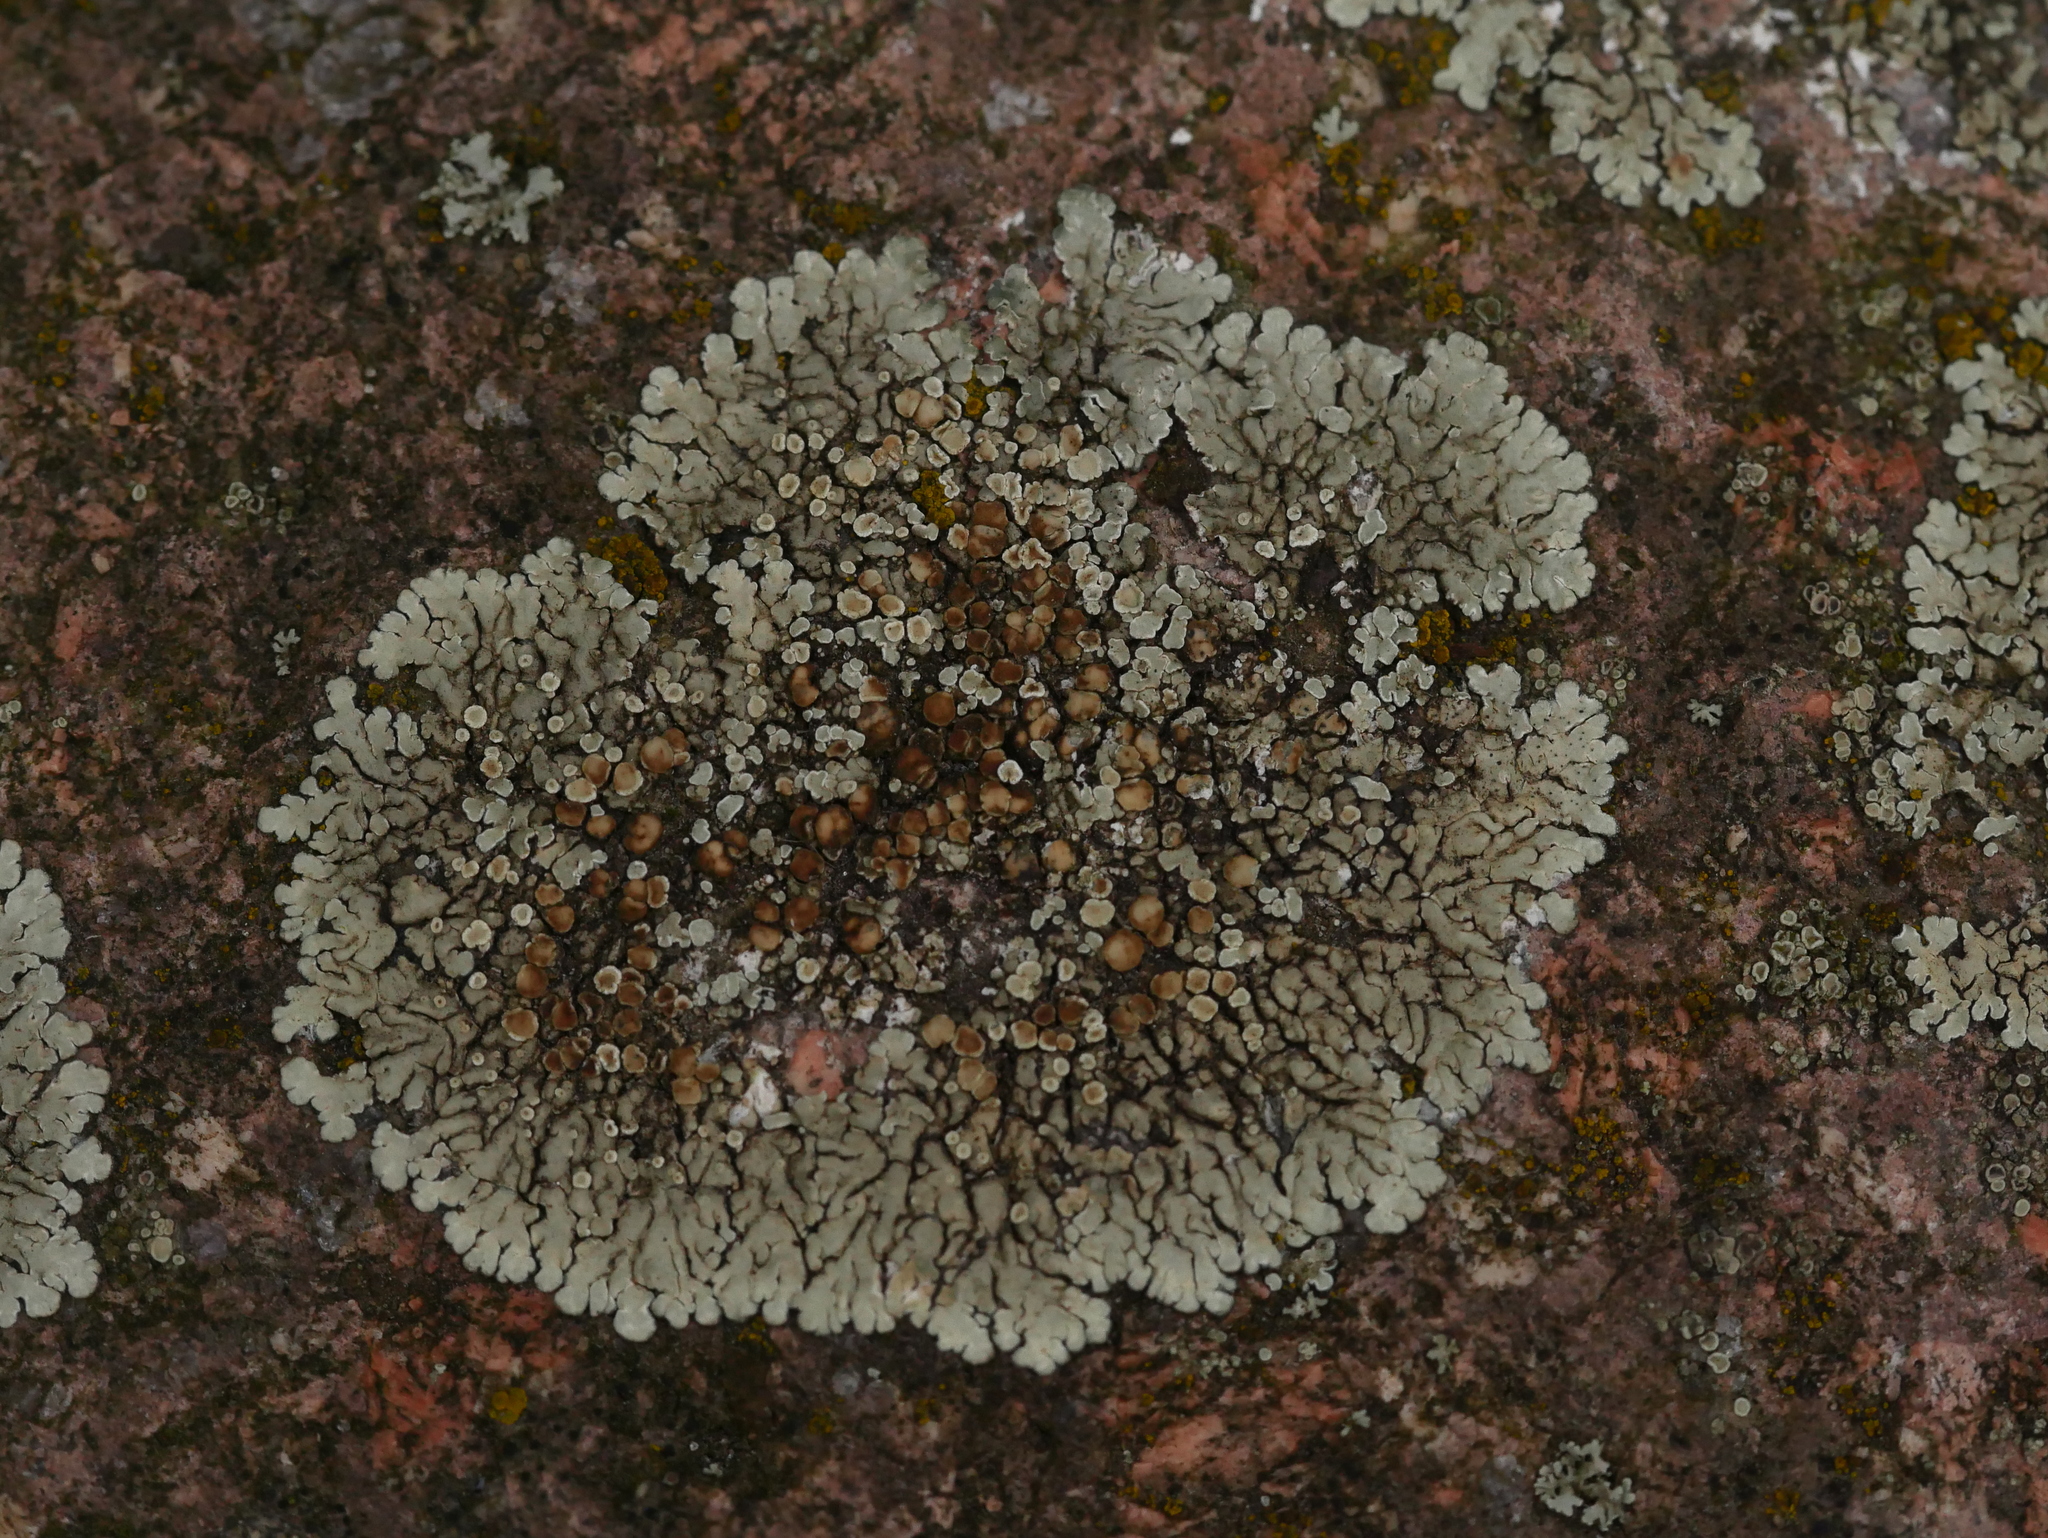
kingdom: Fungi
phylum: Ascomycota
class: Lecanoromycetes
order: Lecanorales
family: Lecanoraceae
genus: Protoparmeliopsis
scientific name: Protoparmeliopsis muralis
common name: Stonewall rim lichen
